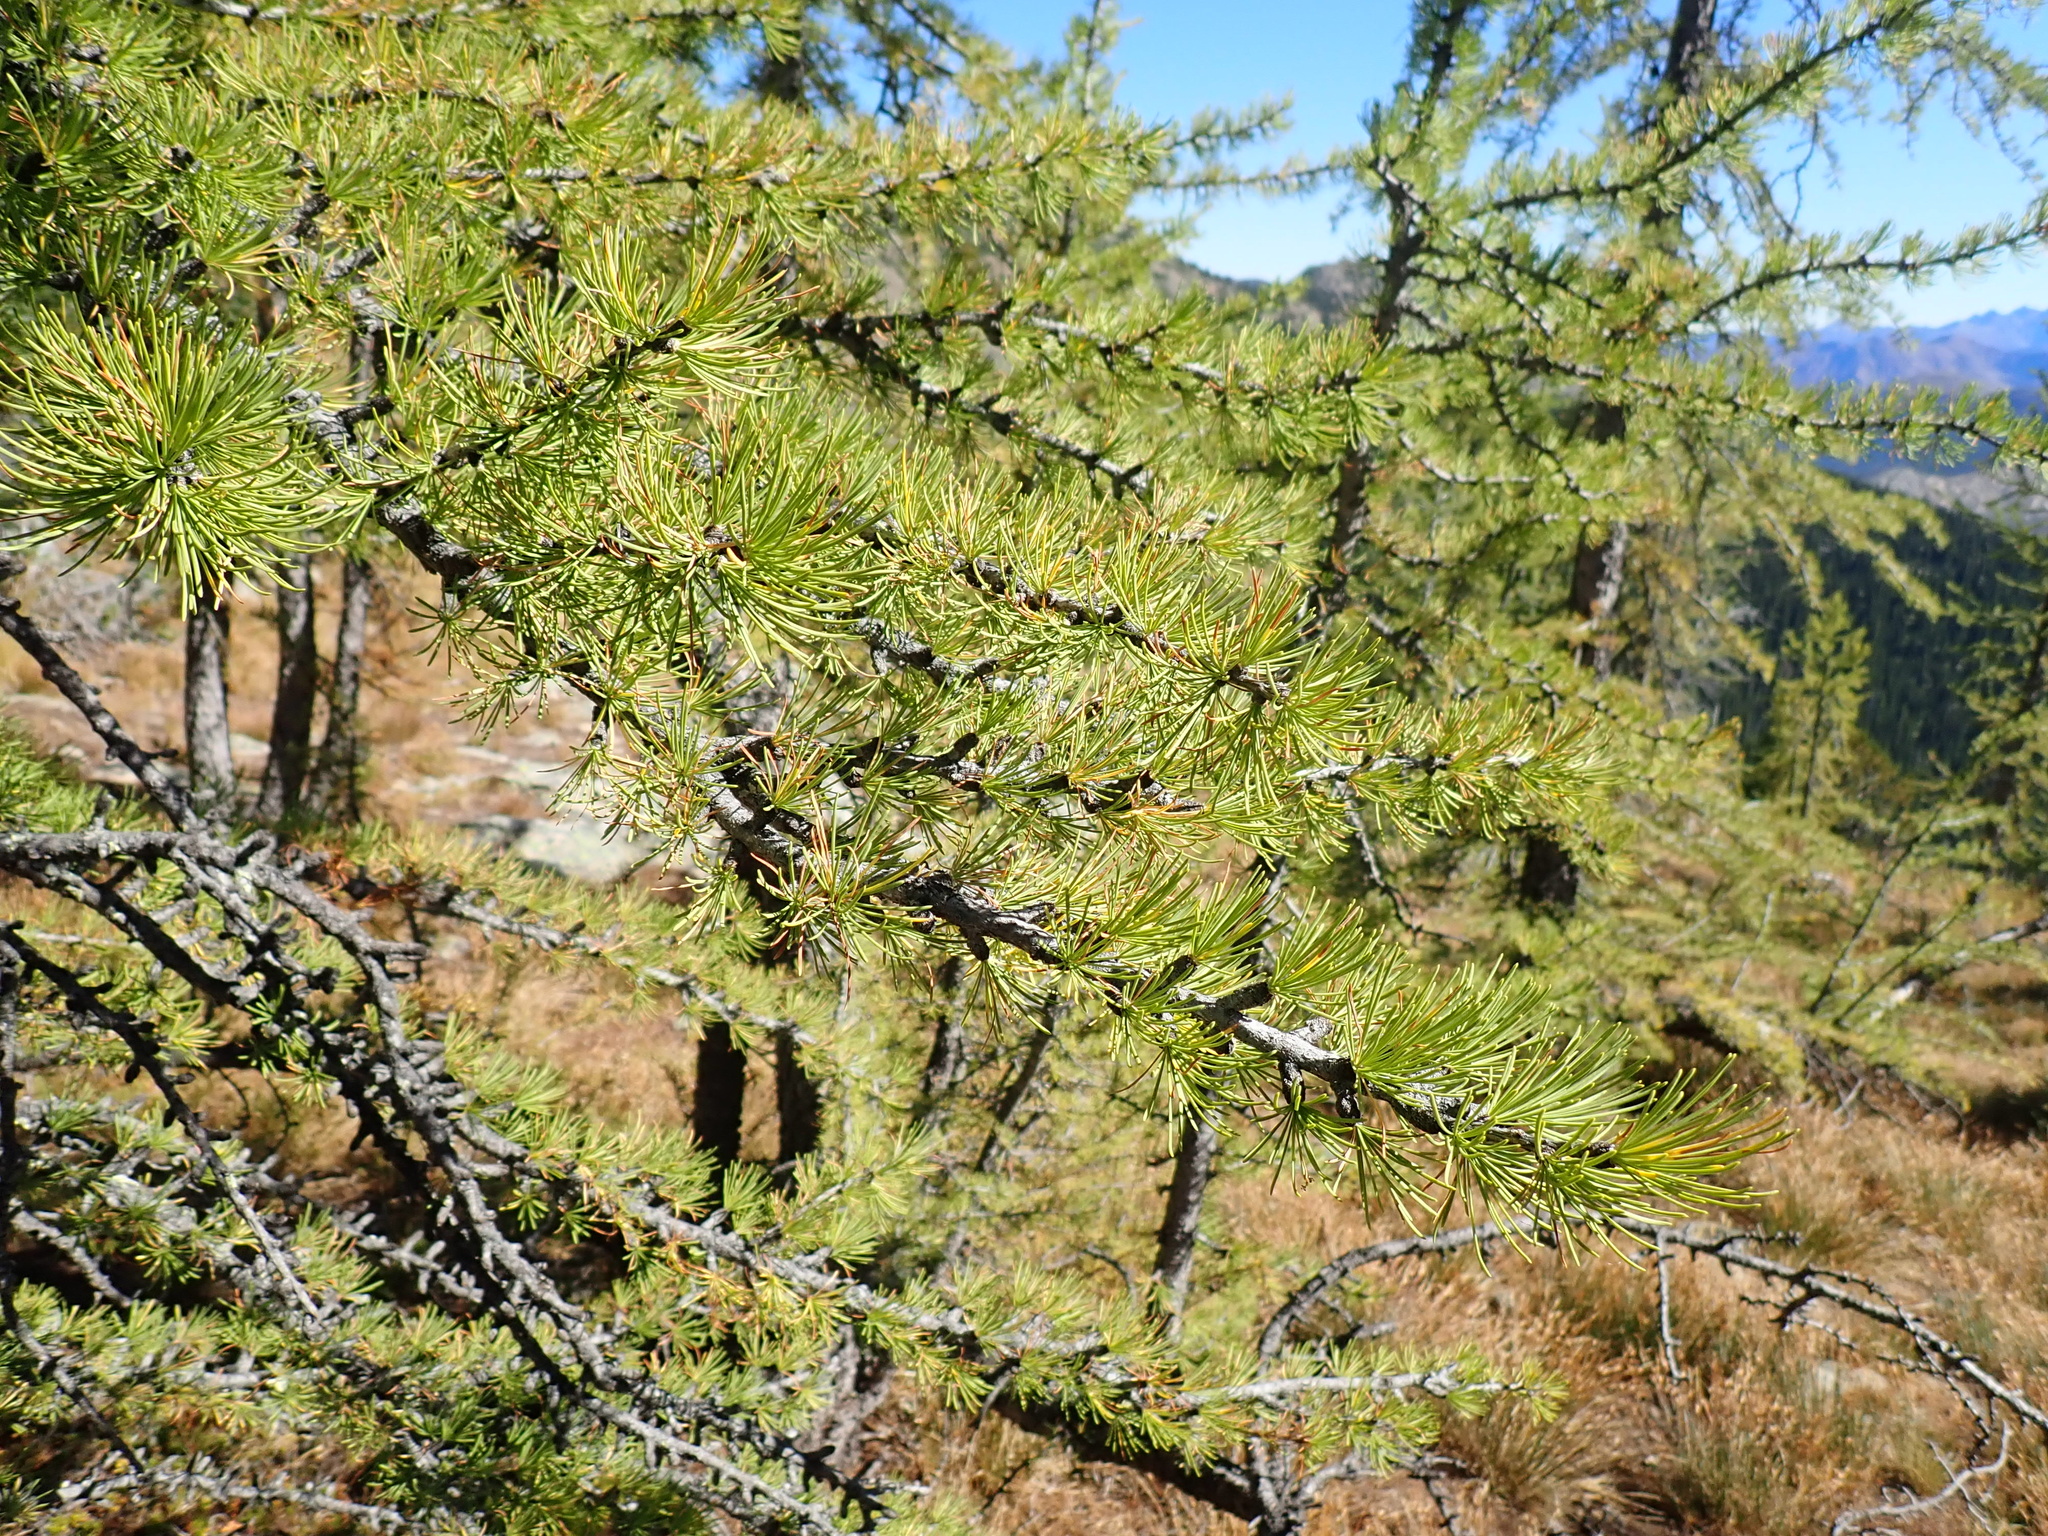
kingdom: Plantae
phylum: Tracheophyta
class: Pinopsida
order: Pinales
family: Pinaceae
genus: Larix
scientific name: Larix lyallii
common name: Alpine larch
